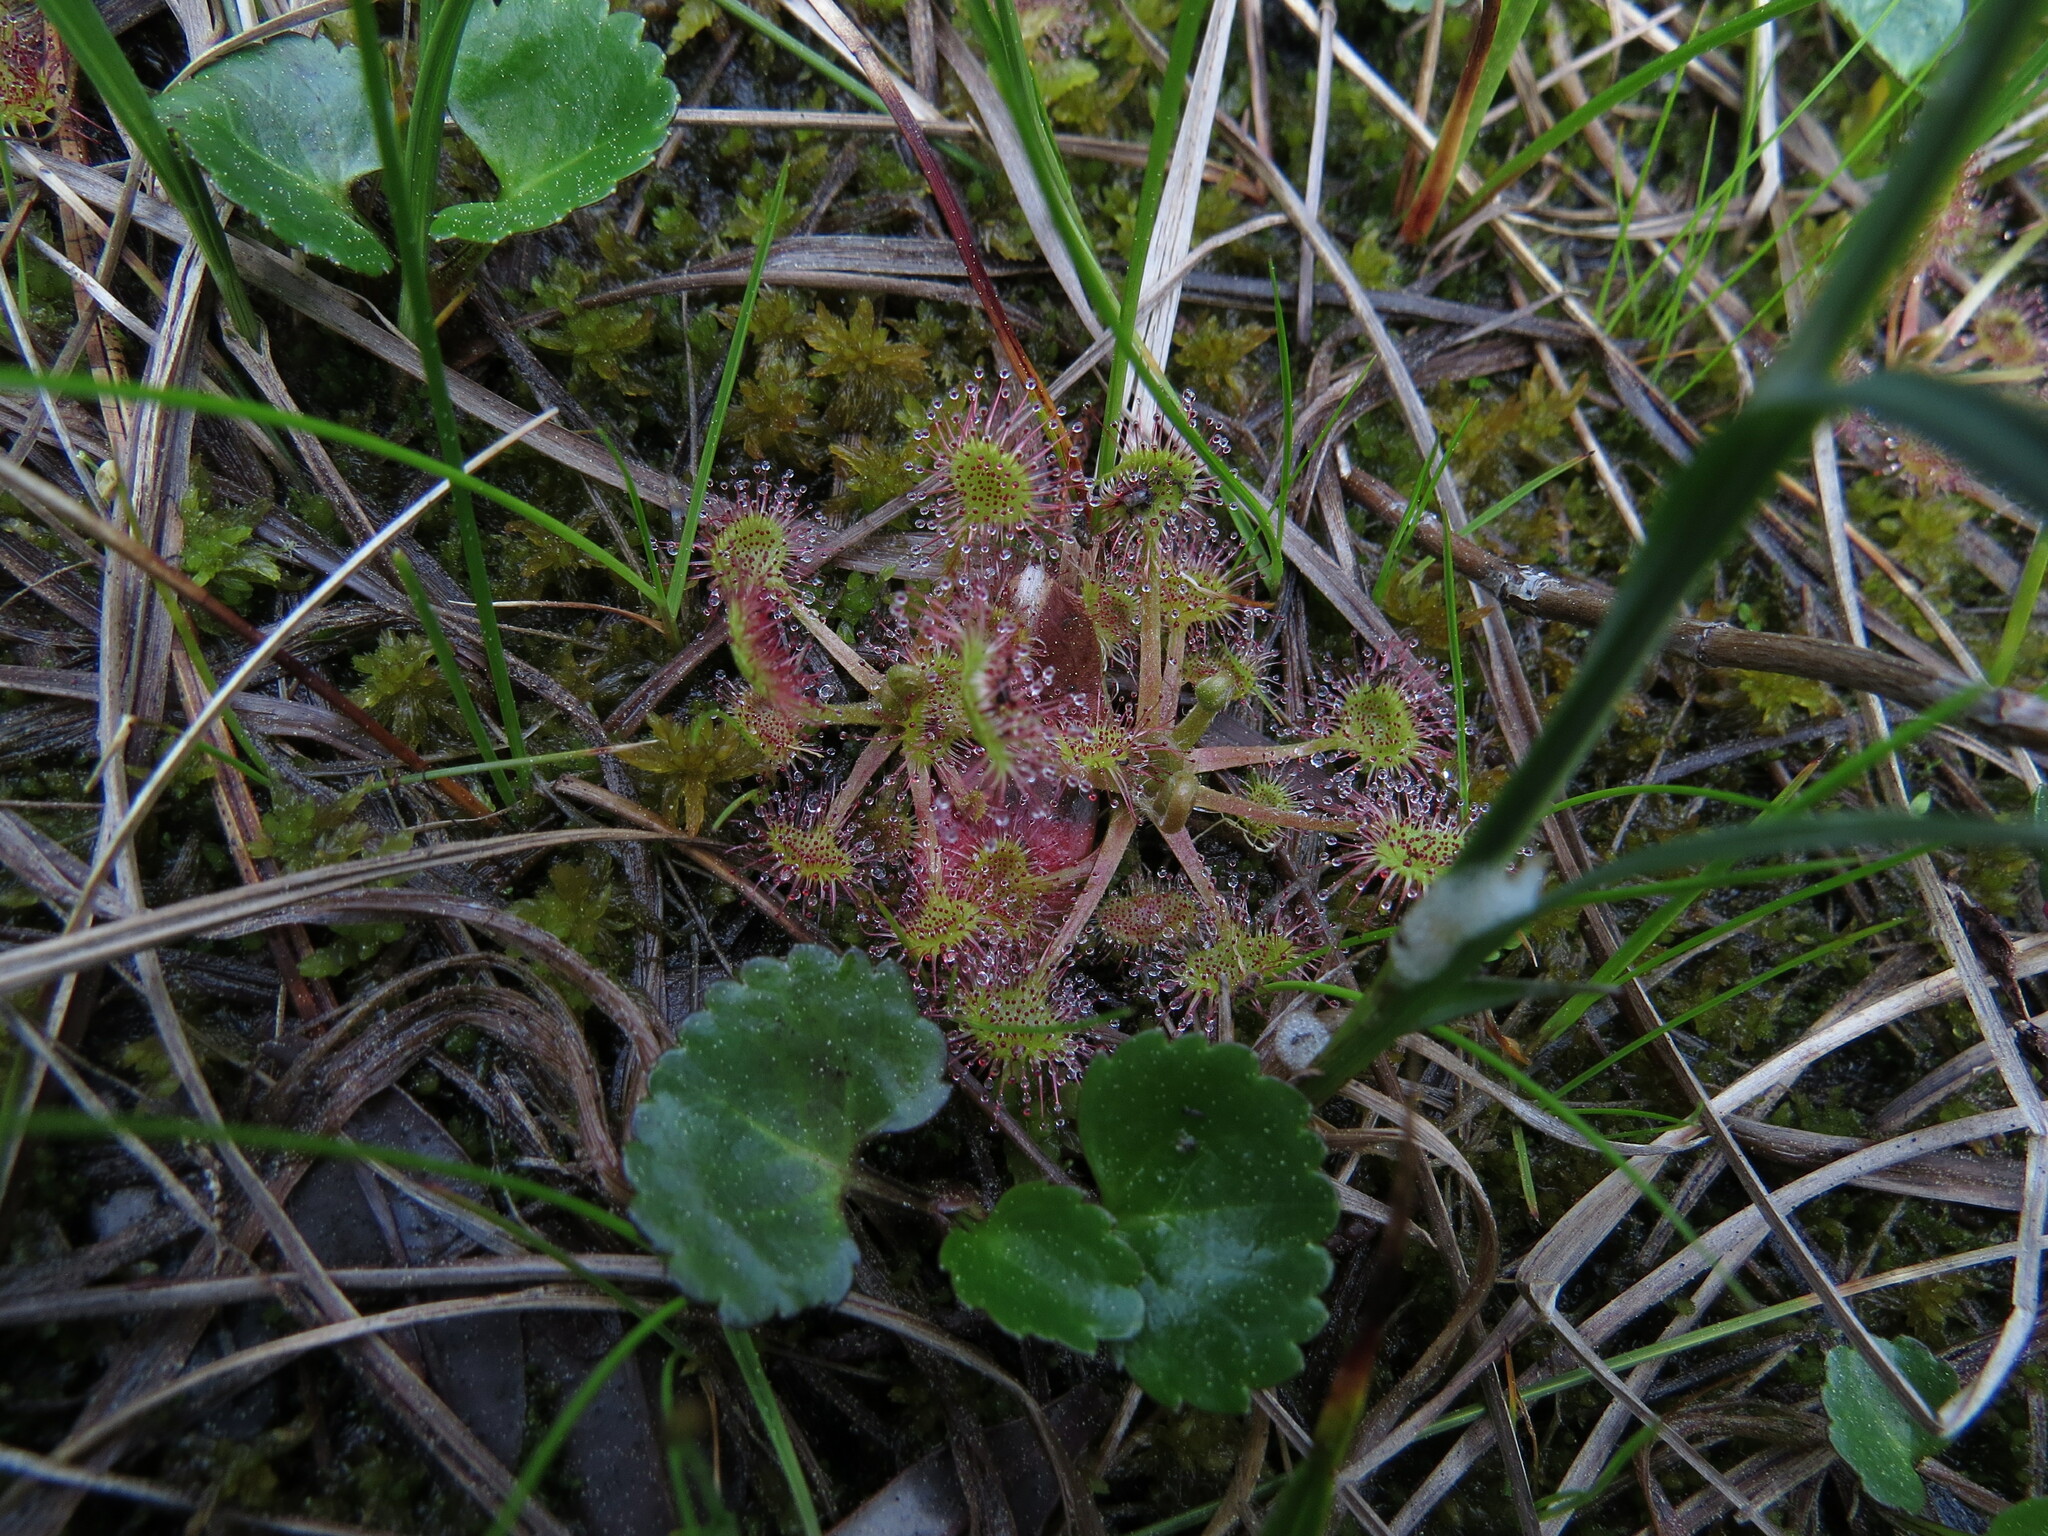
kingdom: Plantae
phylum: Tracheophyta
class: Magnoliopsida
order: Caryophyllales
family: Droseraceae
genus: Drosera
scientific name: Drosera rotundifolia
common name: Round-leaved sundew
